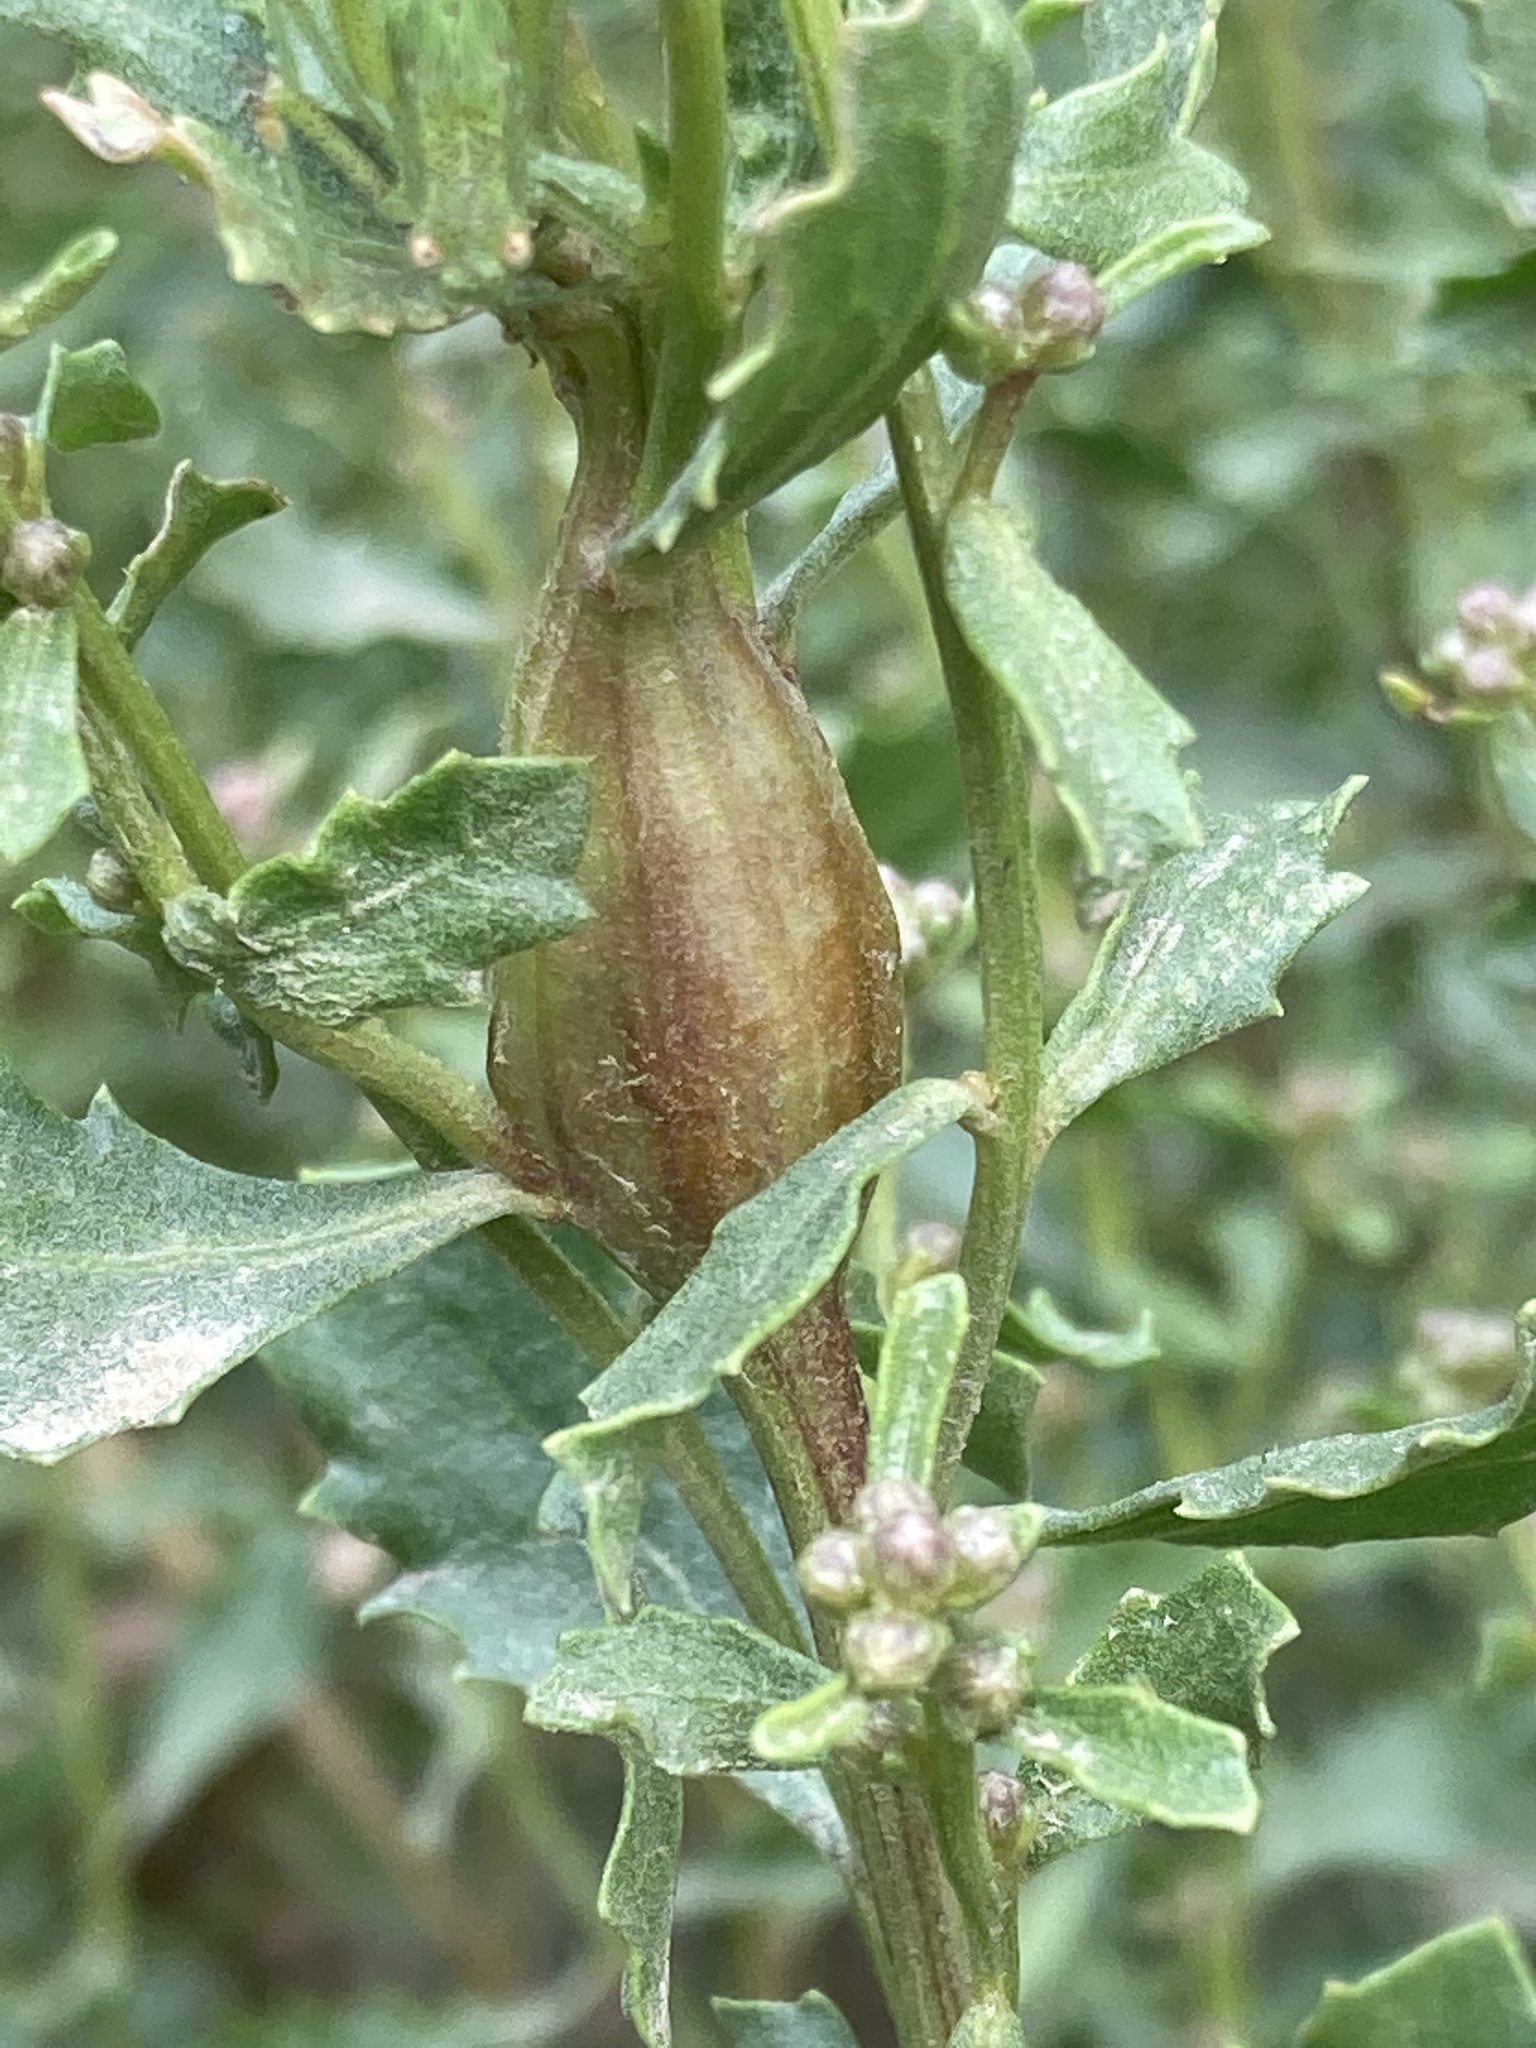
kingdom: Animalia
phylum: Arthropoda
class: Insecta
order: Lepidoptera
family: Gelechiidae
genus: Gnorimoschema
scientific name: Gnorimoschema baccharisella
